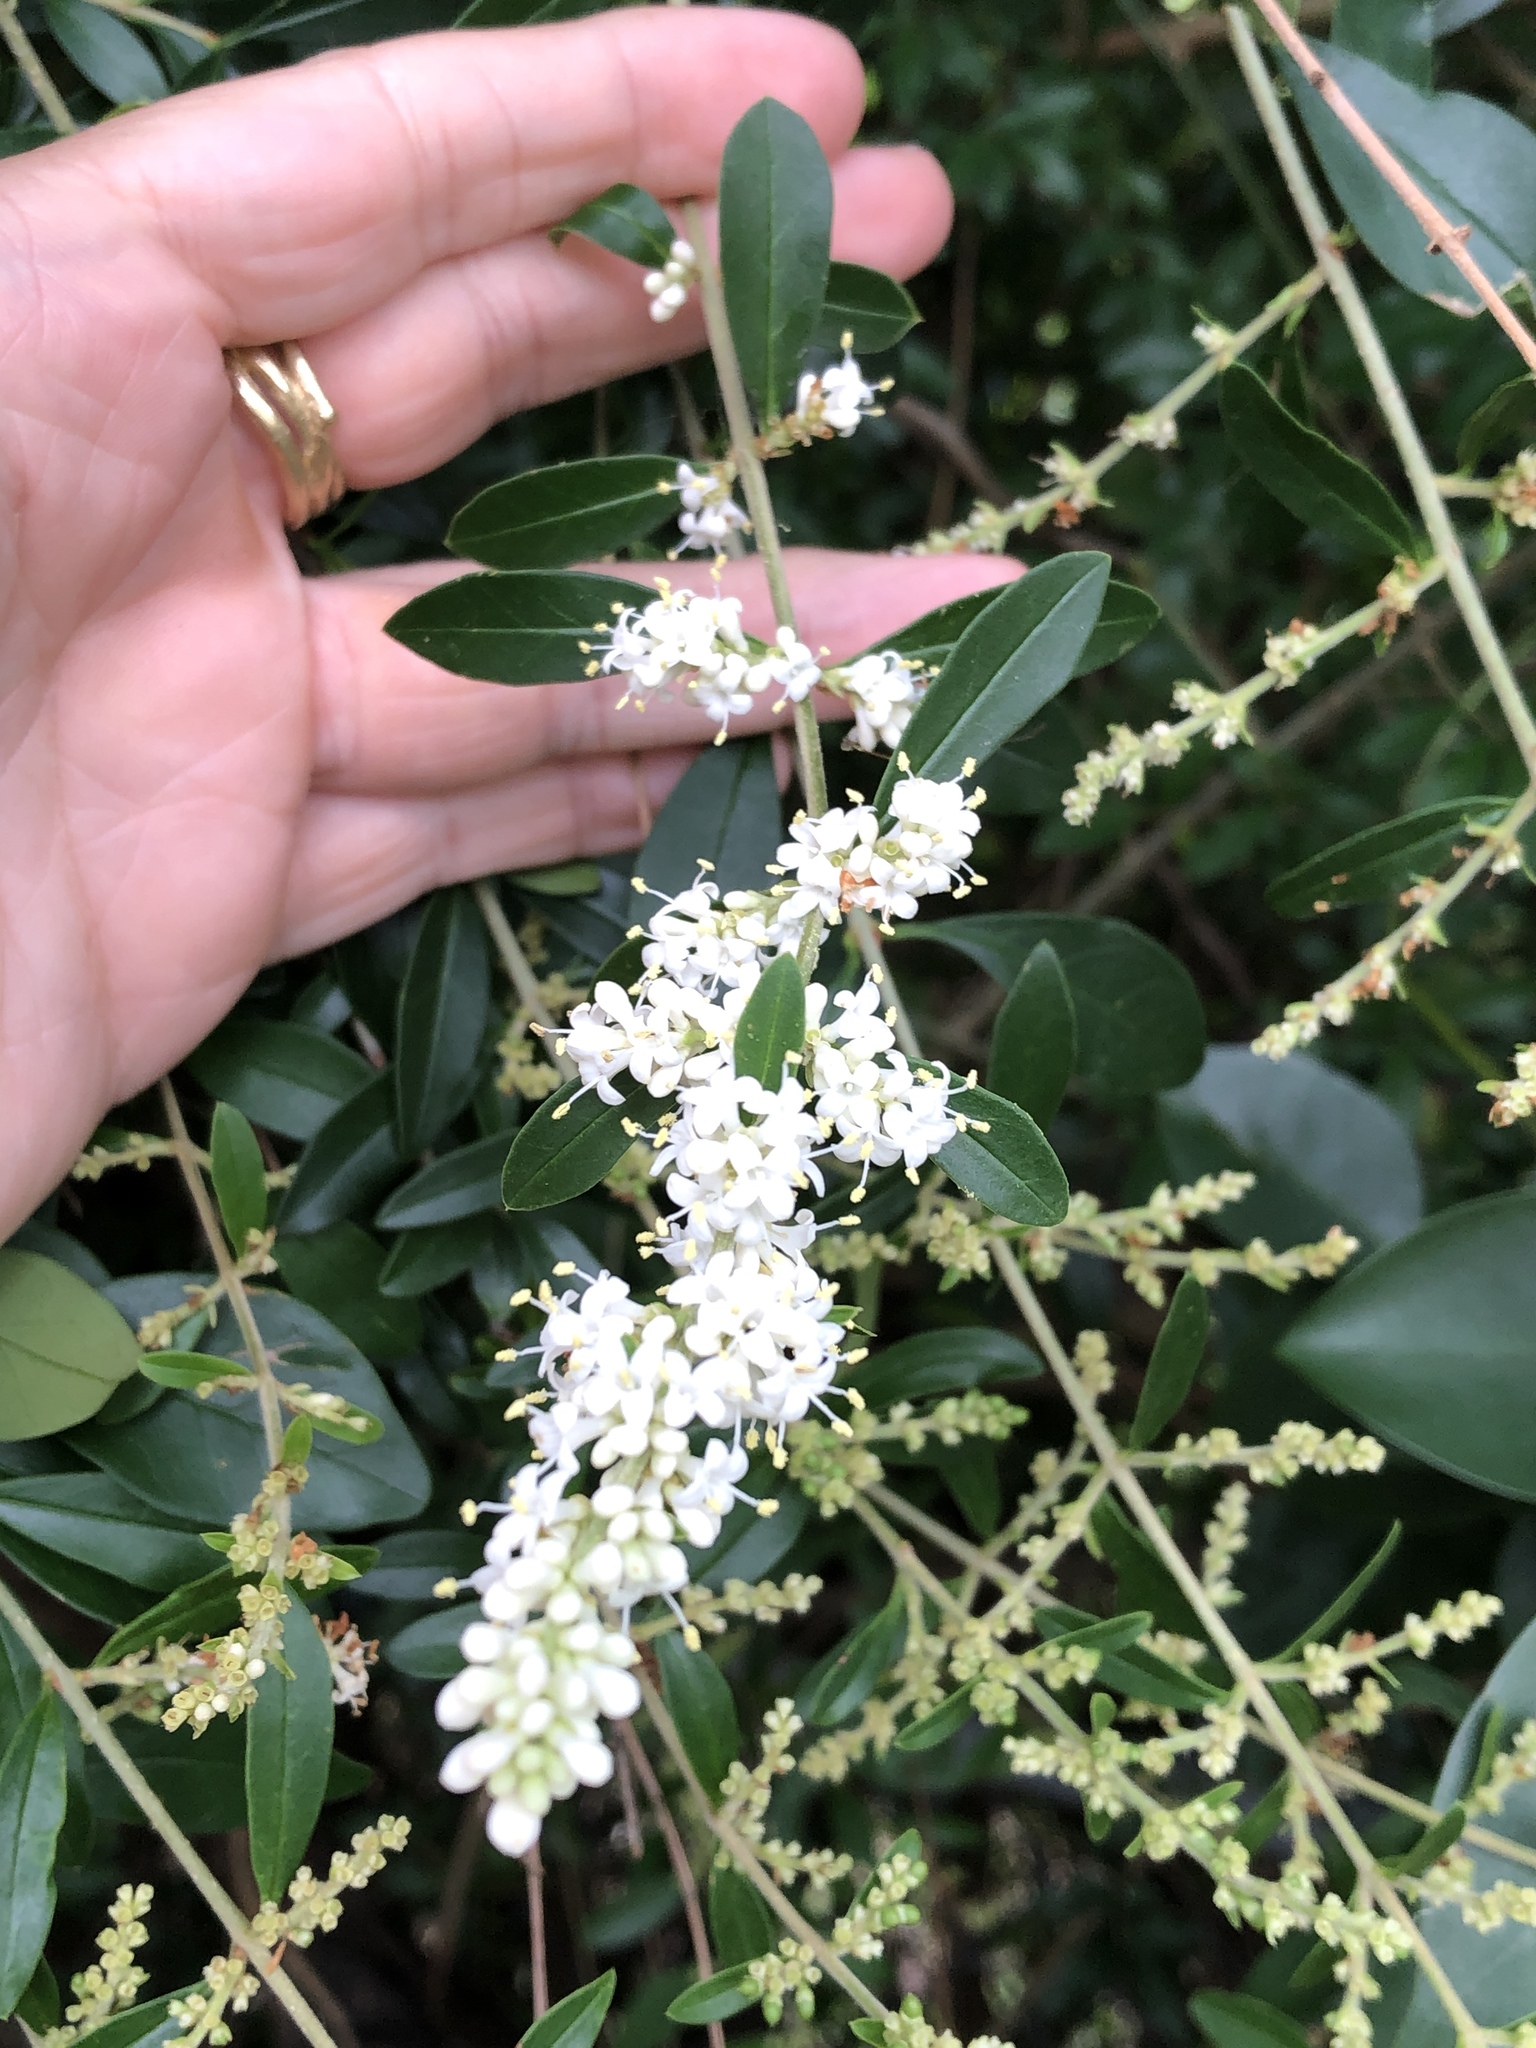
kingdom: Plantae
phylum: Tracheophyta
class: Magnoliopsida
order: Lamiales
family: Oleaceae
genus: Ligustrum
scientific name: Ligustrum quihoui
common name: Waxyleaf privet
